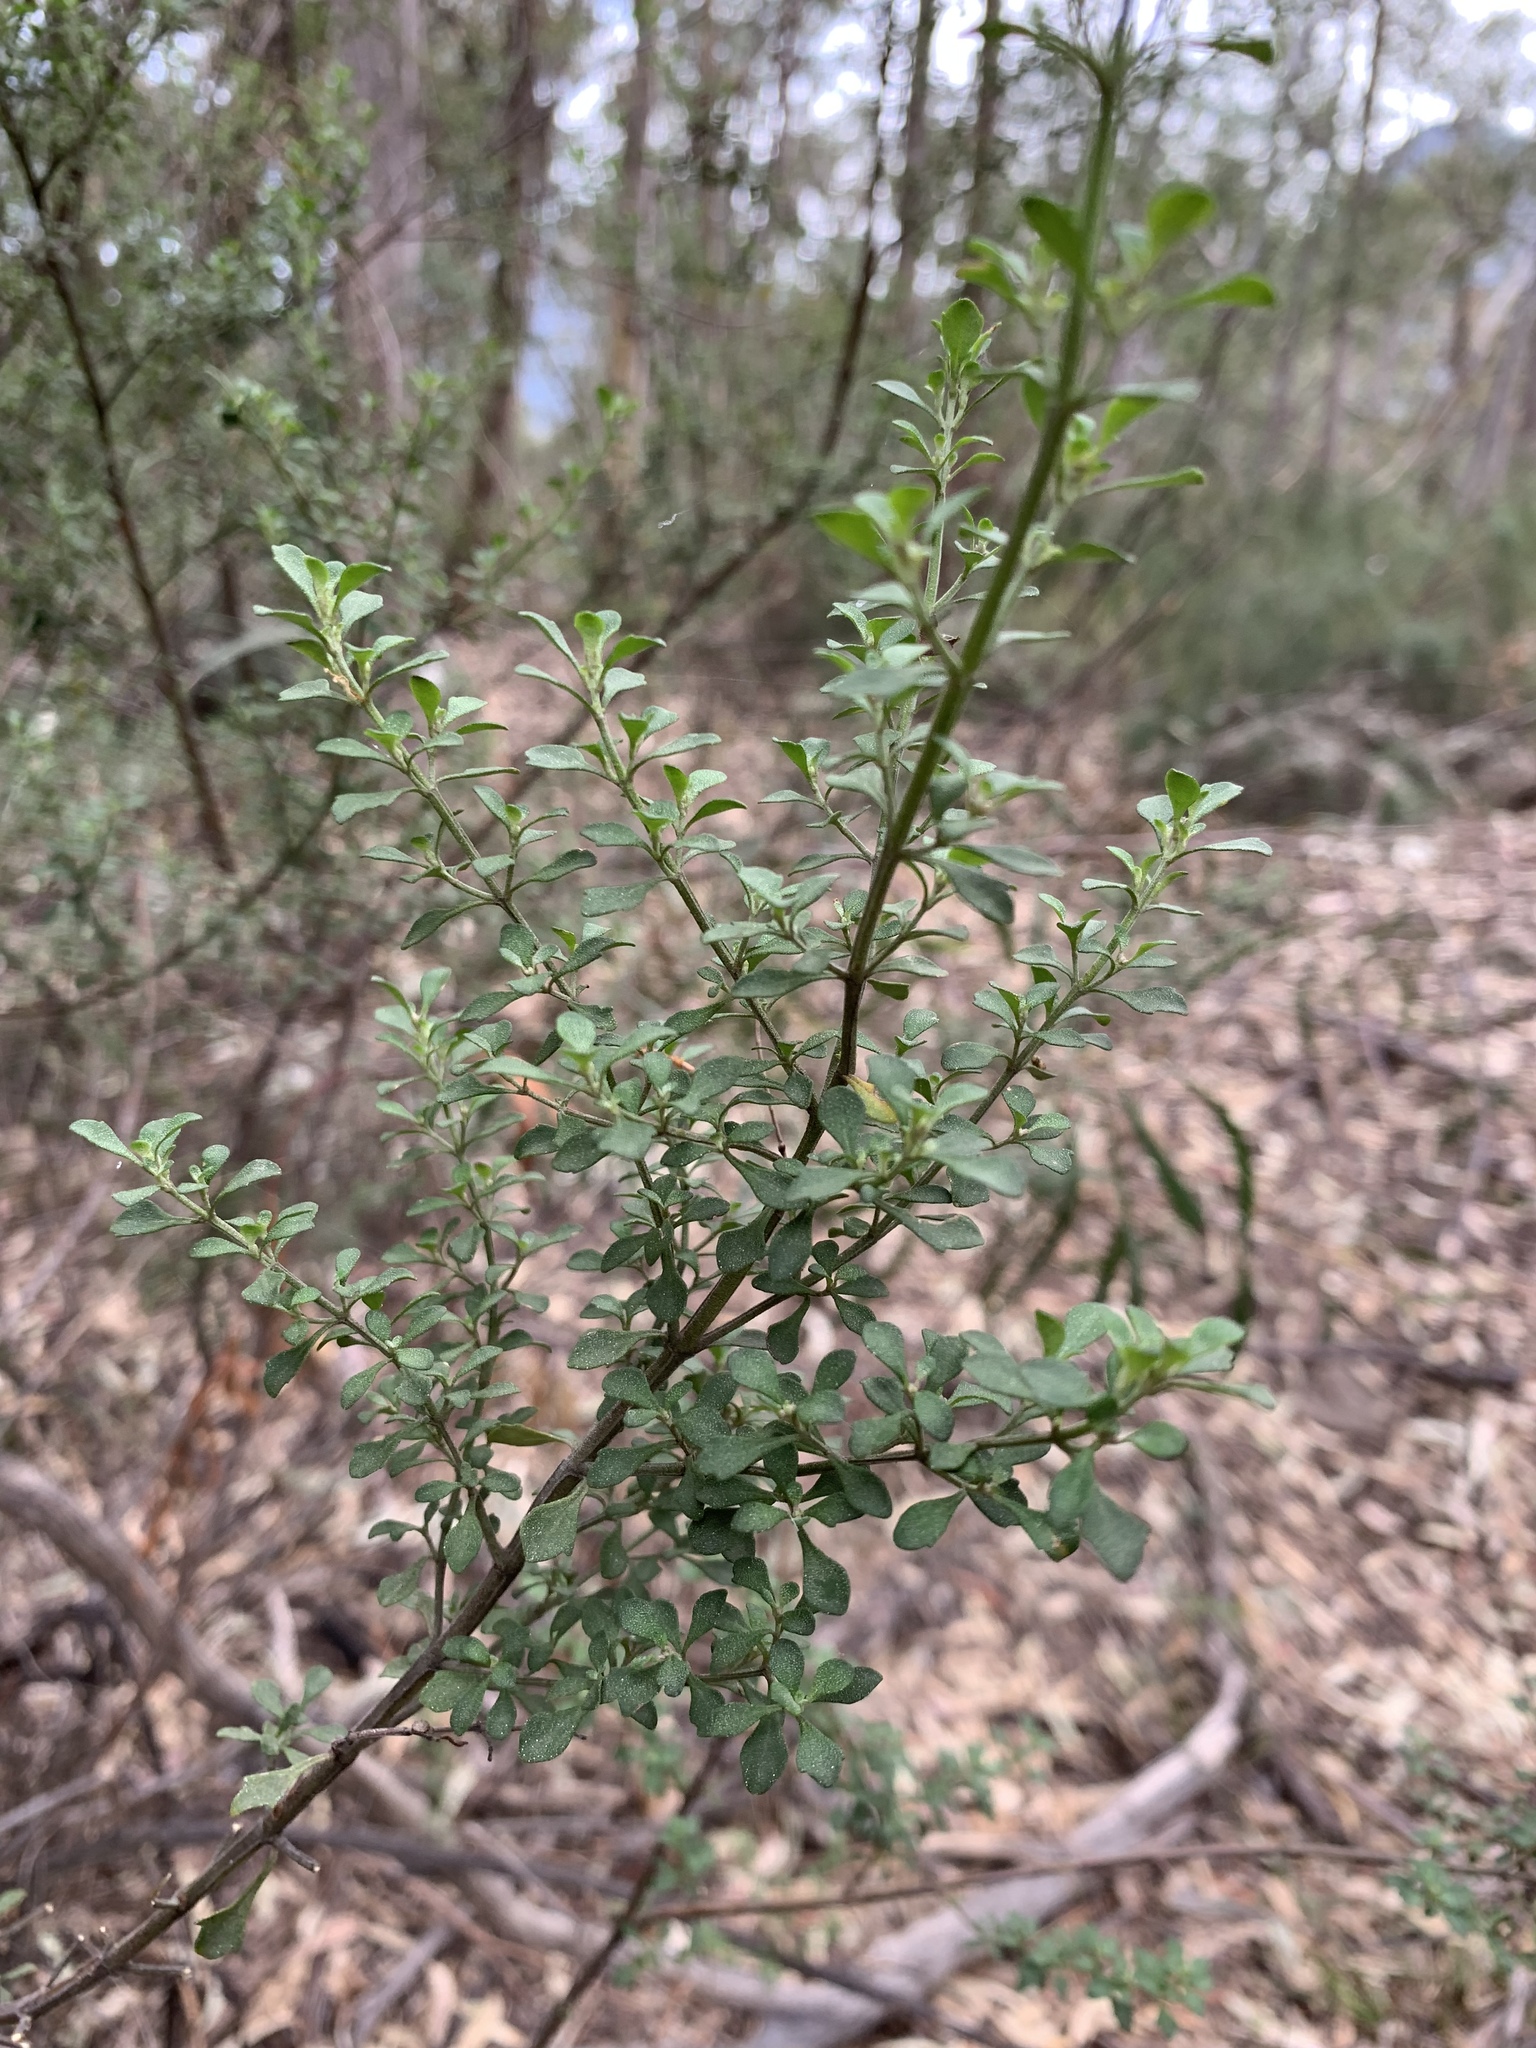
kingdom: Plantae
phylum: Tracheophyta
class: Magnoliopsida
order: Lamiales
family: Lamiaceae
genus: Prostanthera
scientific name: Prostanthera rotundifolia
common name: Round-leaf mintbush
